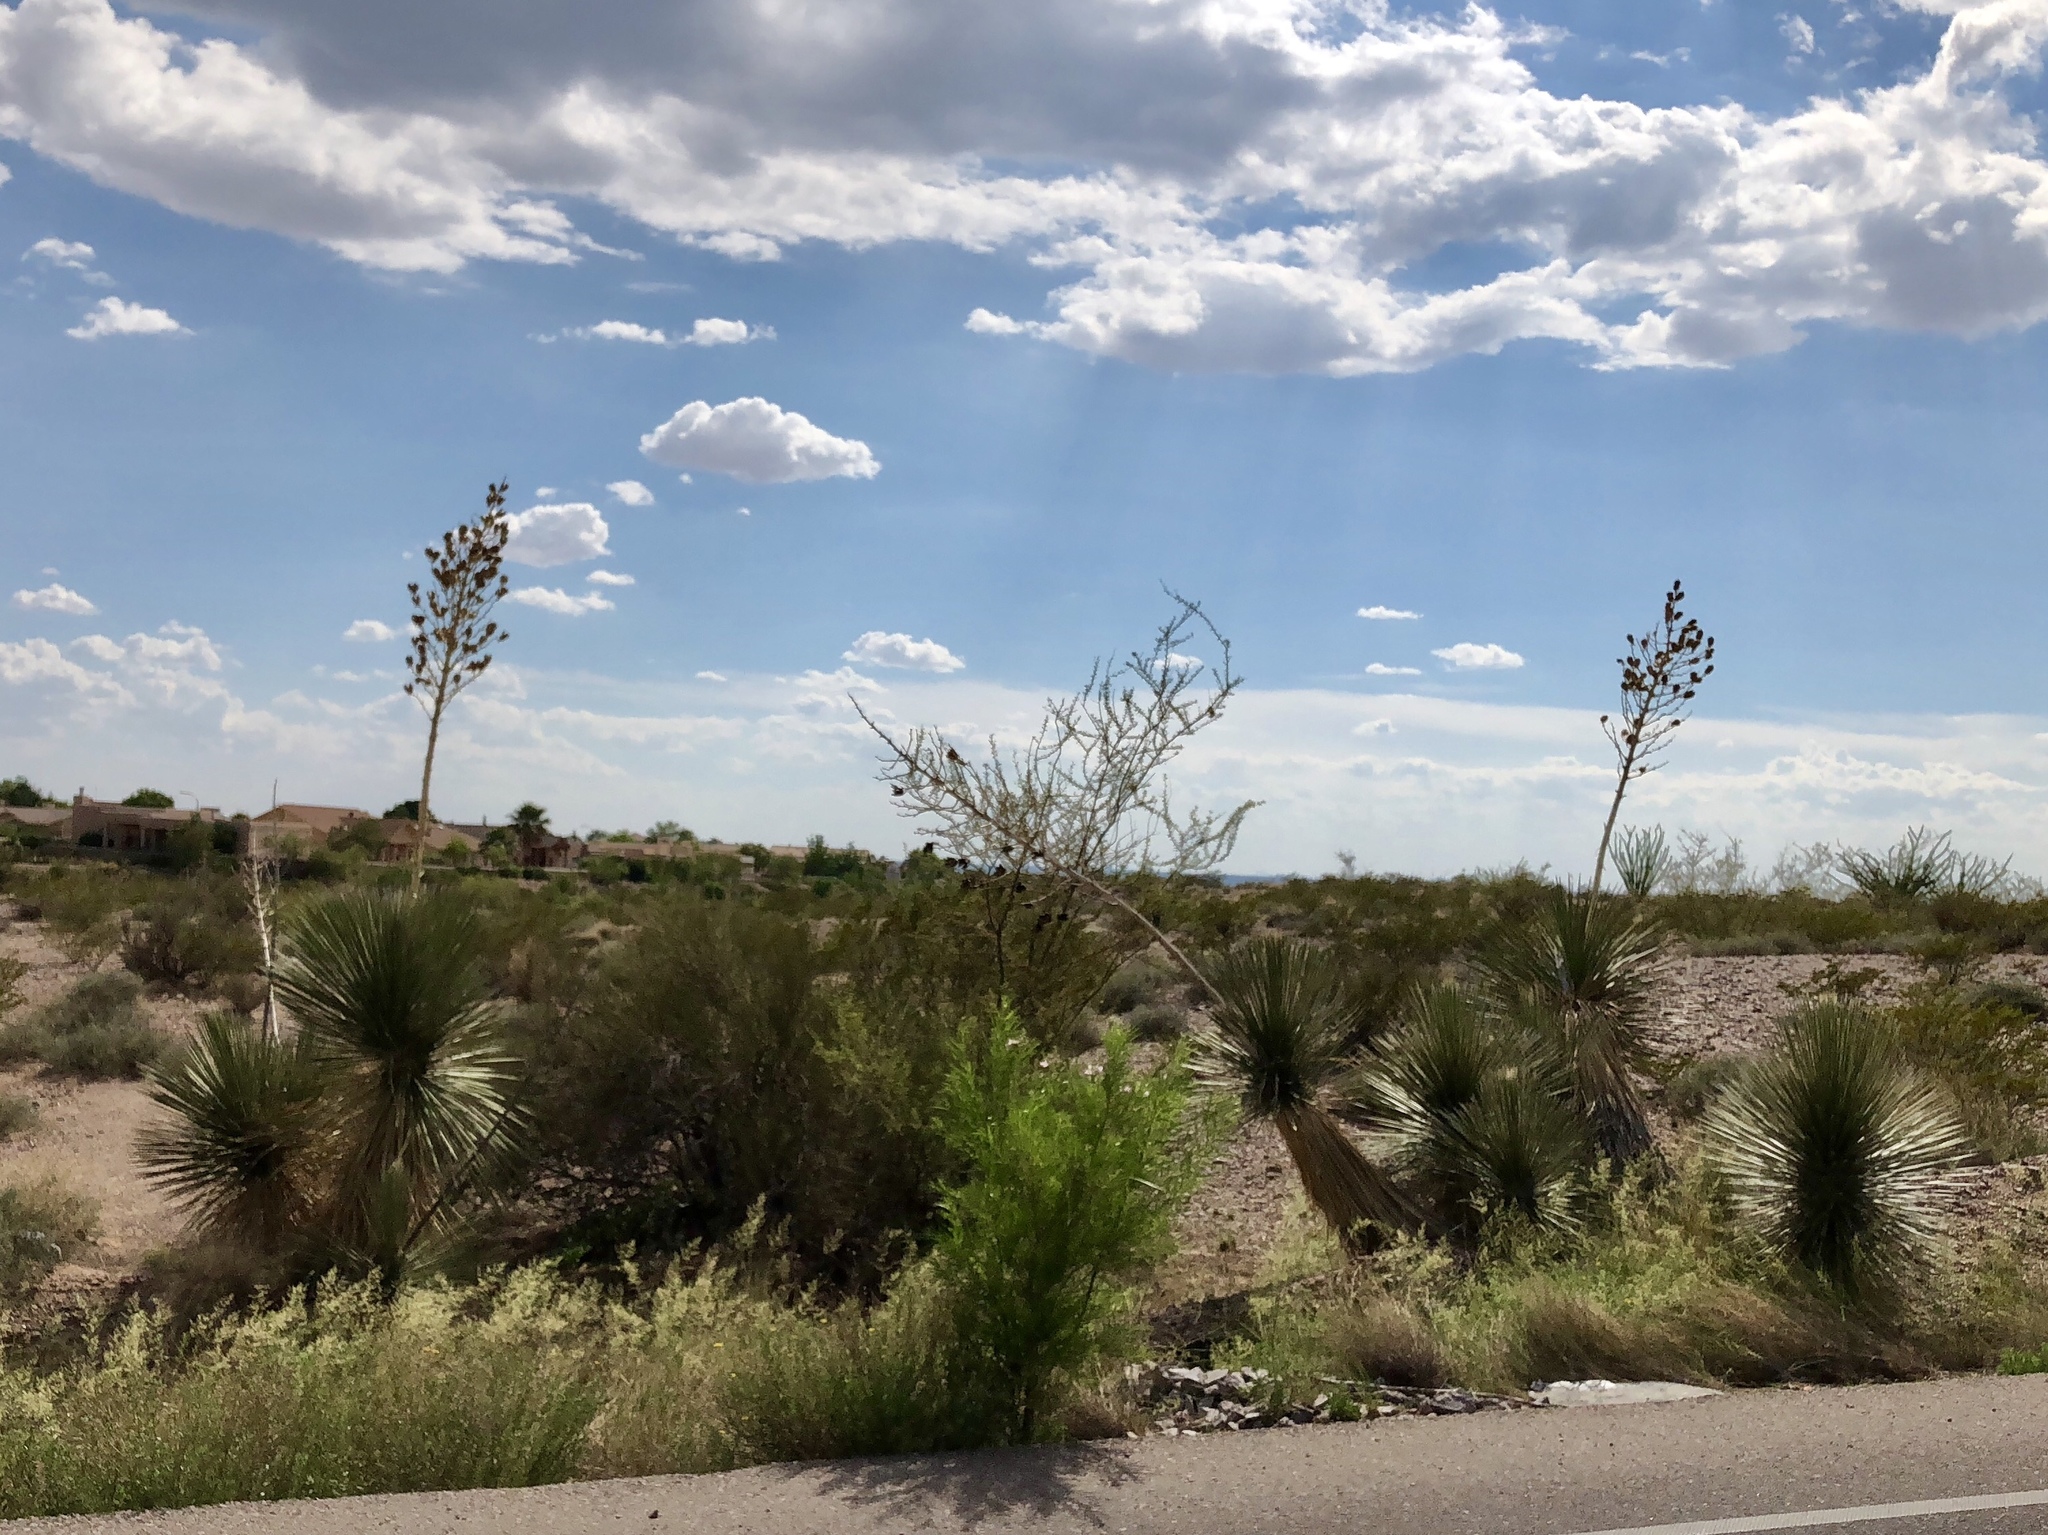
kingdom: Plantae
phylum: Tracheophyta
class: Liliopsida
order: Asparagales
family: Asparagaceae
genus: Yucca
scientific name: Yucca elata
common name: Palmella
